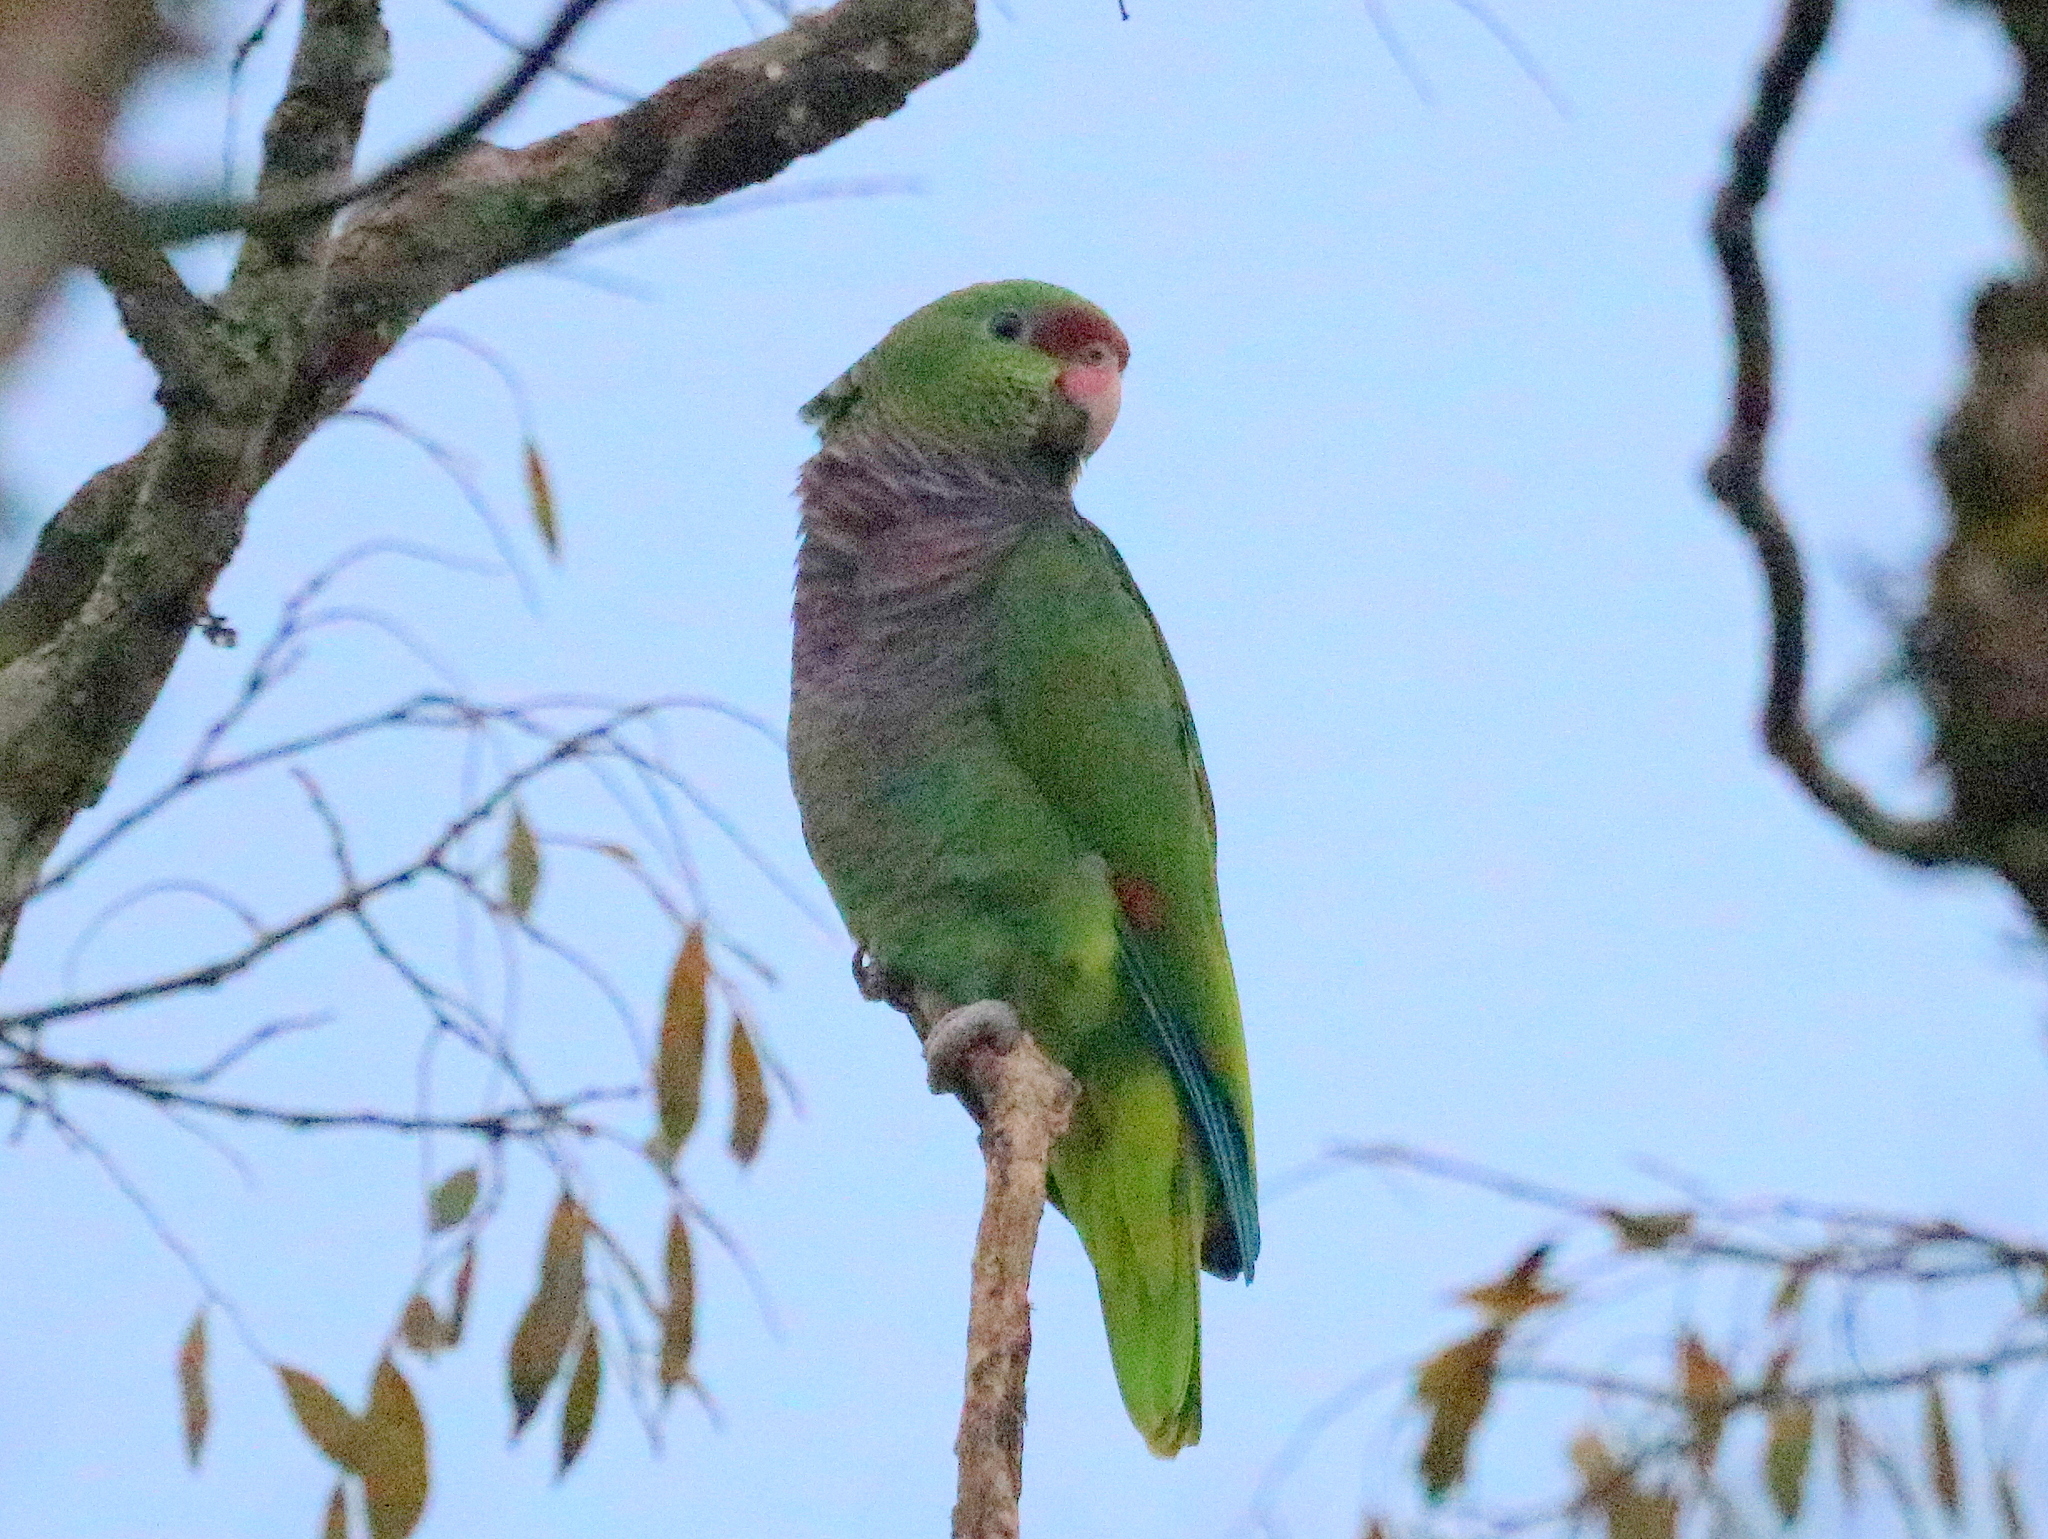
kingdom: Animalia
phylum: Chordata
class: Aves
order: Psittaciformes
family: Psittacidae
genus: Amazona
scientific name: Amazona vinacea
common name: Vinaceous-breasted amazon
